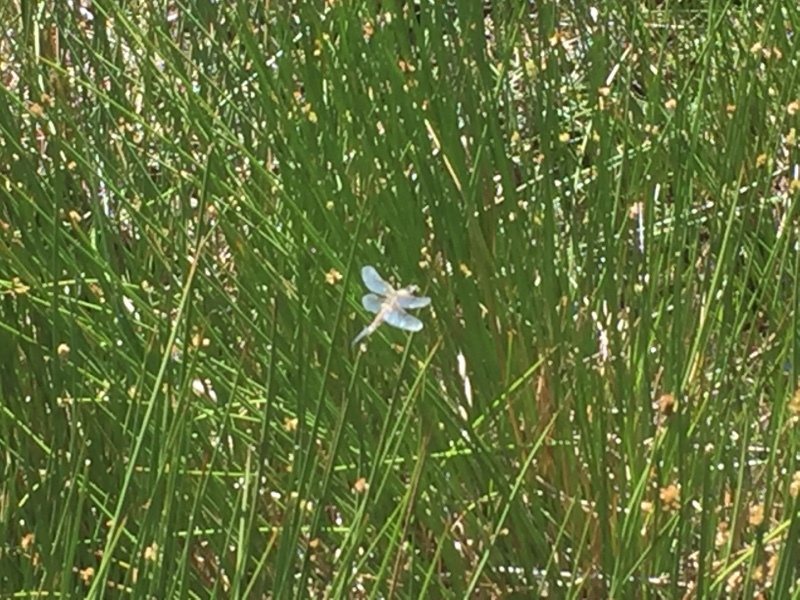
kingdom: Animalia
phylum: Arthropoda
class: Insecta
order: Odonata
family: Libellulidae
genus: Libellula
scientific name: Libellula quadrimaculata
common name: Four-spotted chaser
